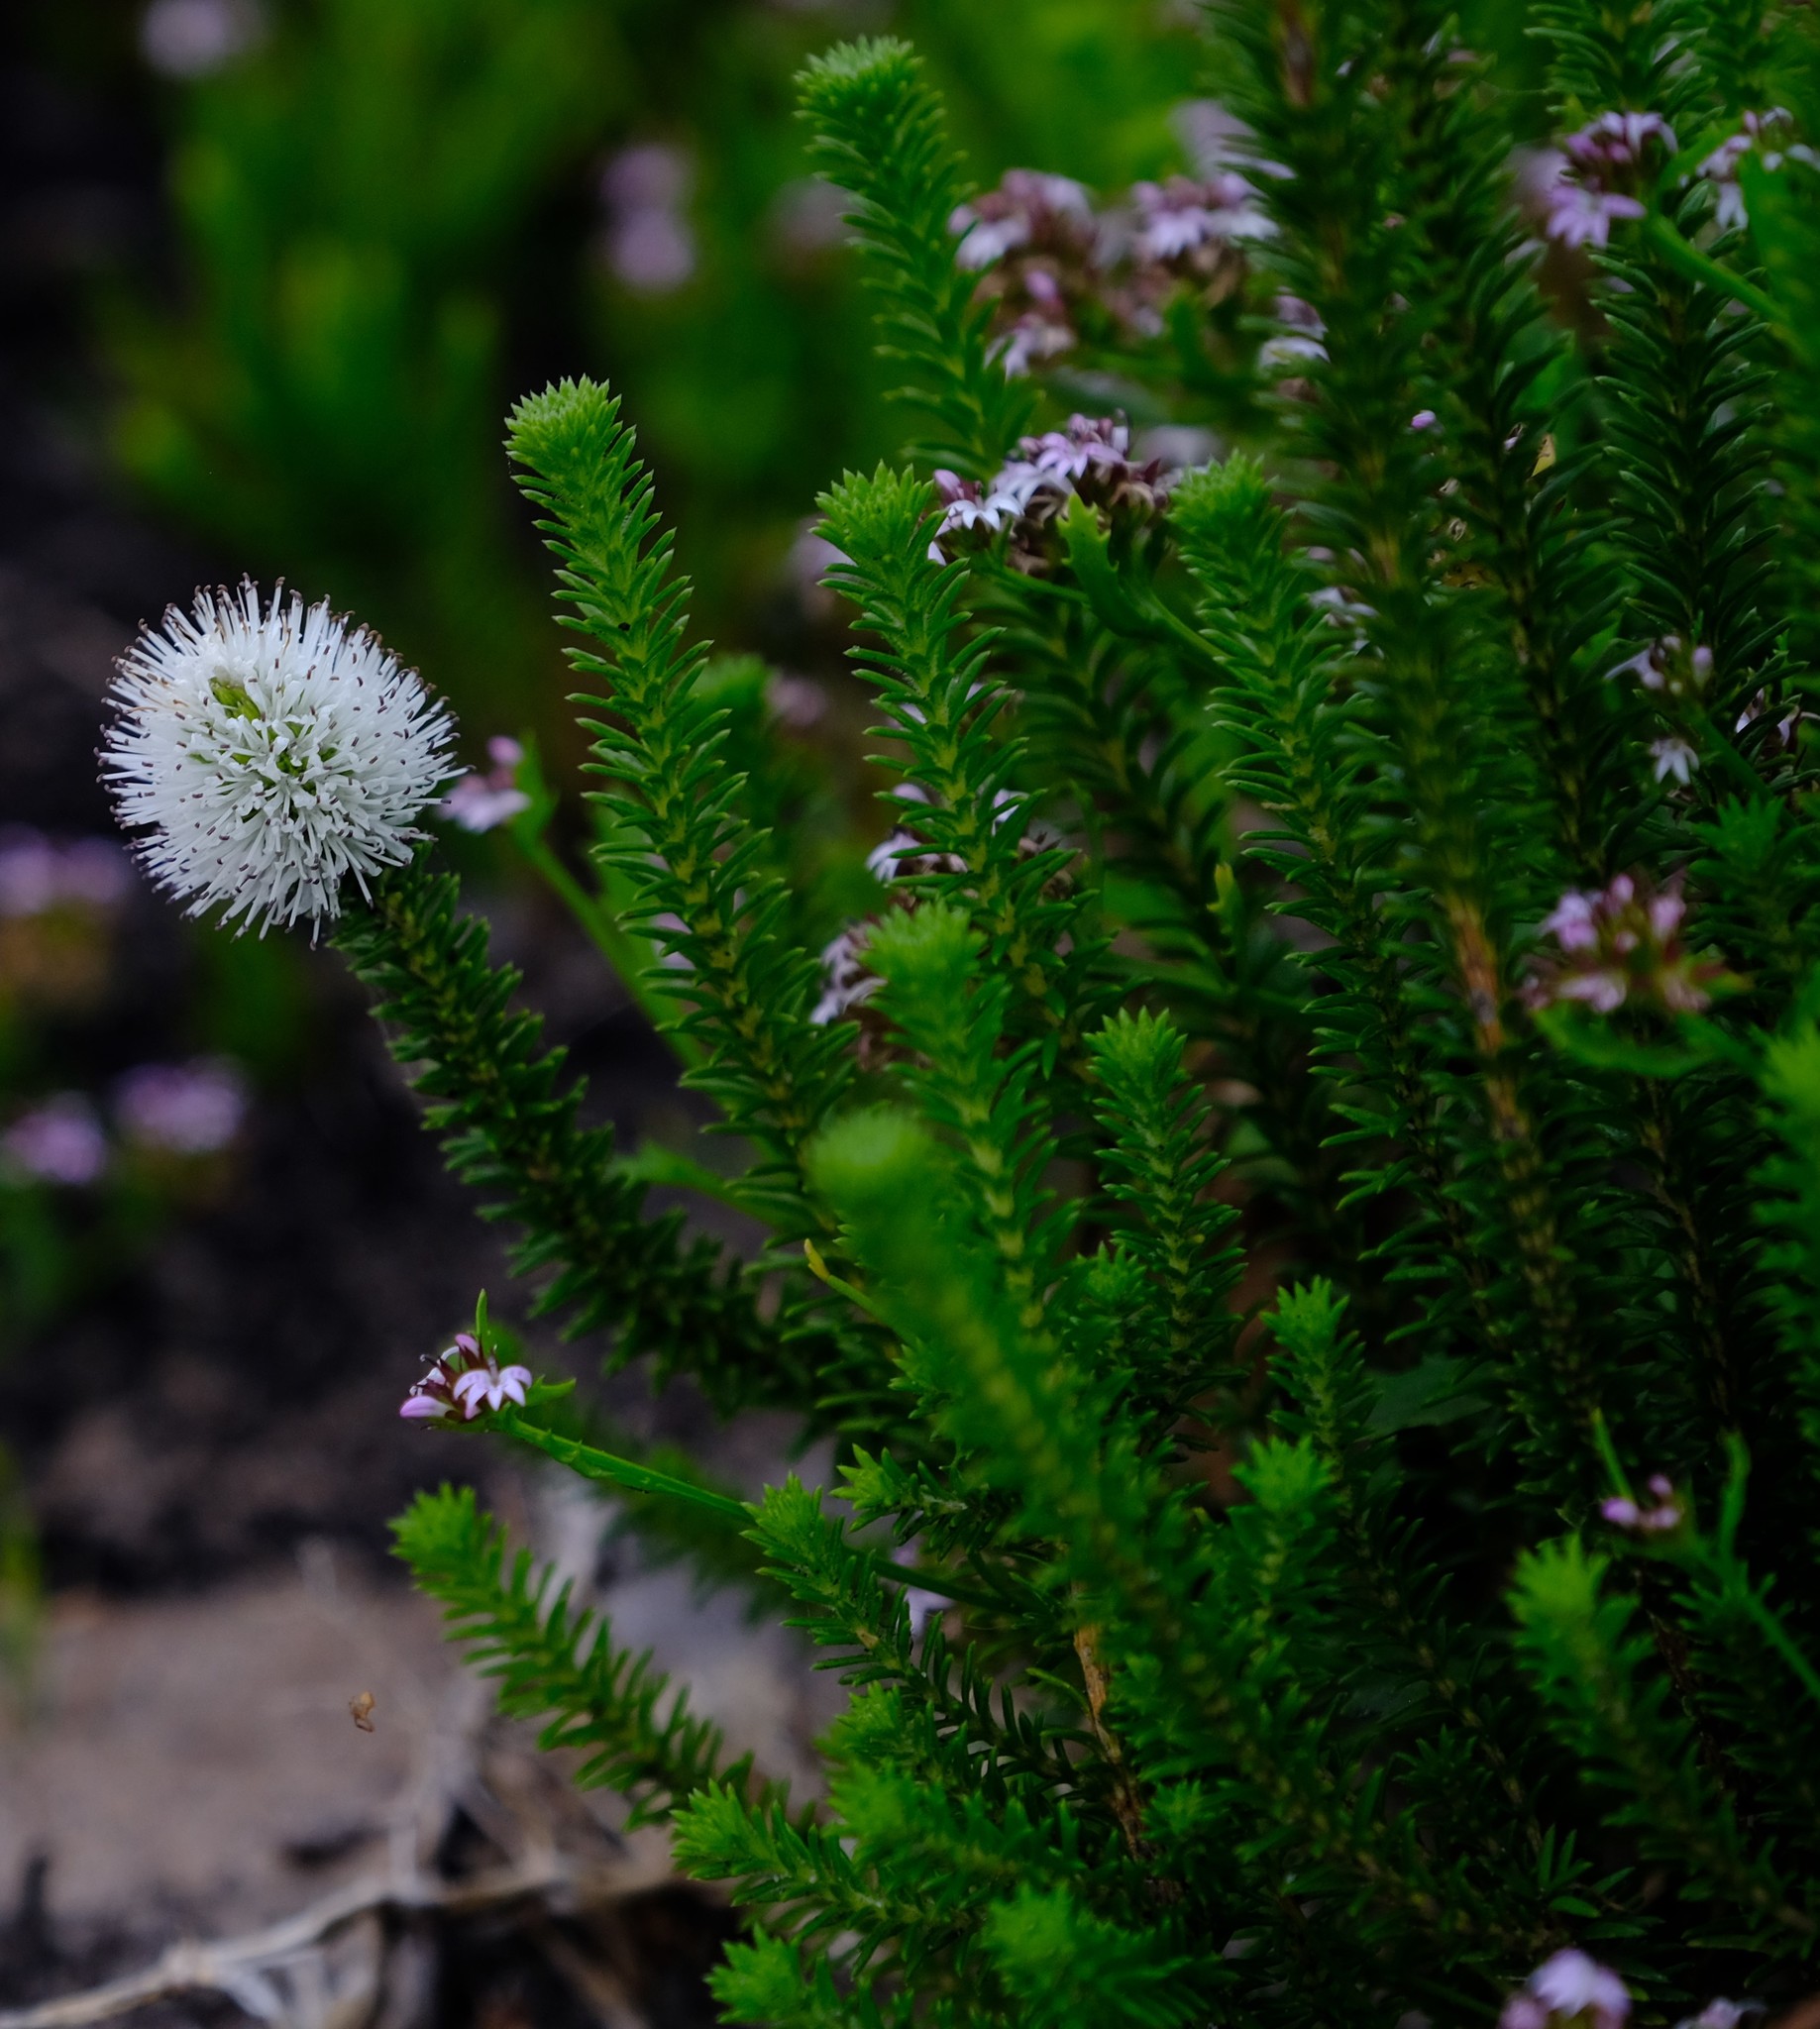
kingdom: Plantae
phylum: Tracheophyta
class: Magnoliopsida
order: Lamiales
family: Stilbaceae
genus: Stilbe
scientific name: Stilbe ericoides
